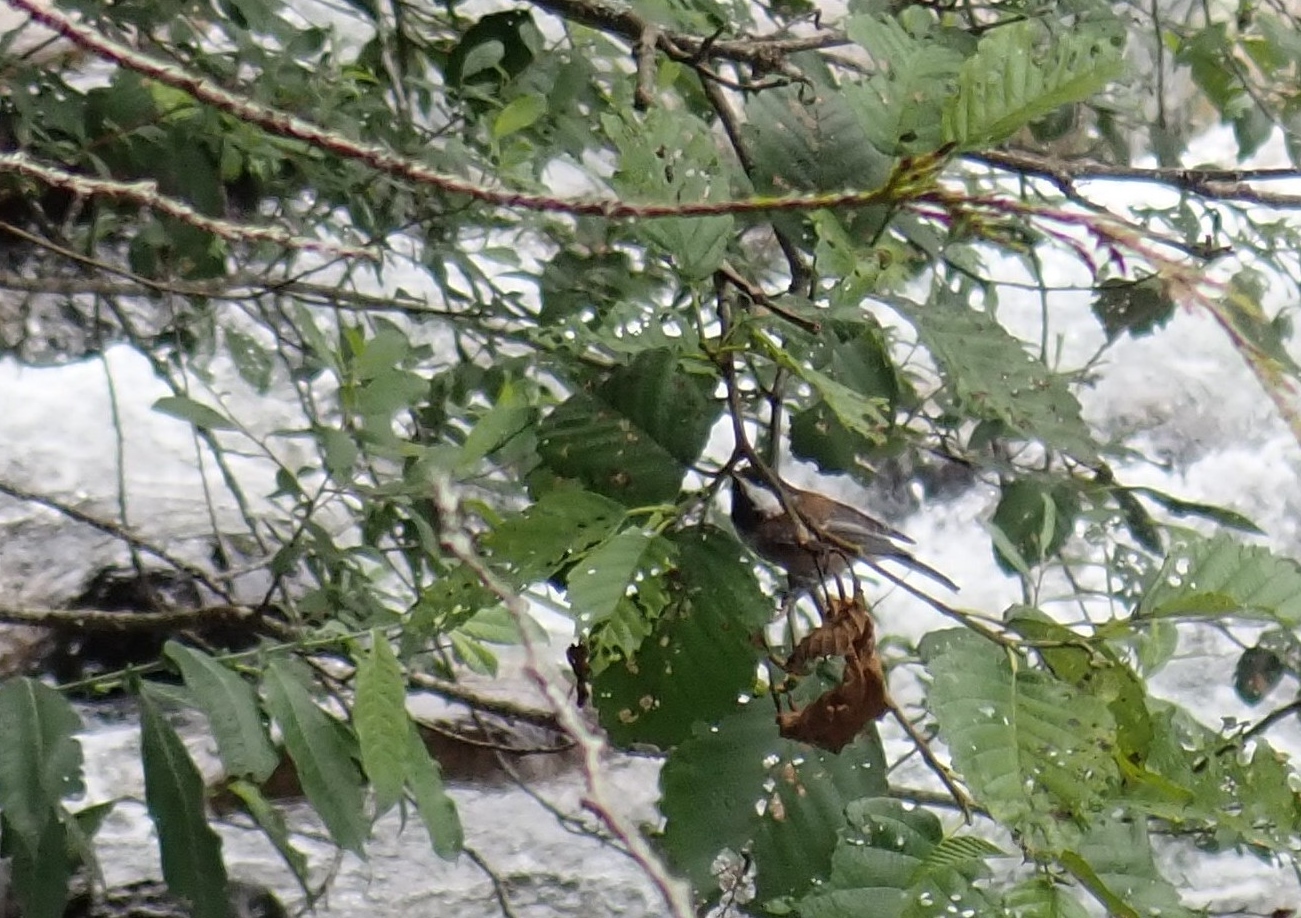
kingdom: Animalia
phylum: Chordata
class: Aves
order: Passeriformes
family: Paridae
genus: Poecile
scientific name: Poecile rufescens
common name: Chestnut-backed chickadee
